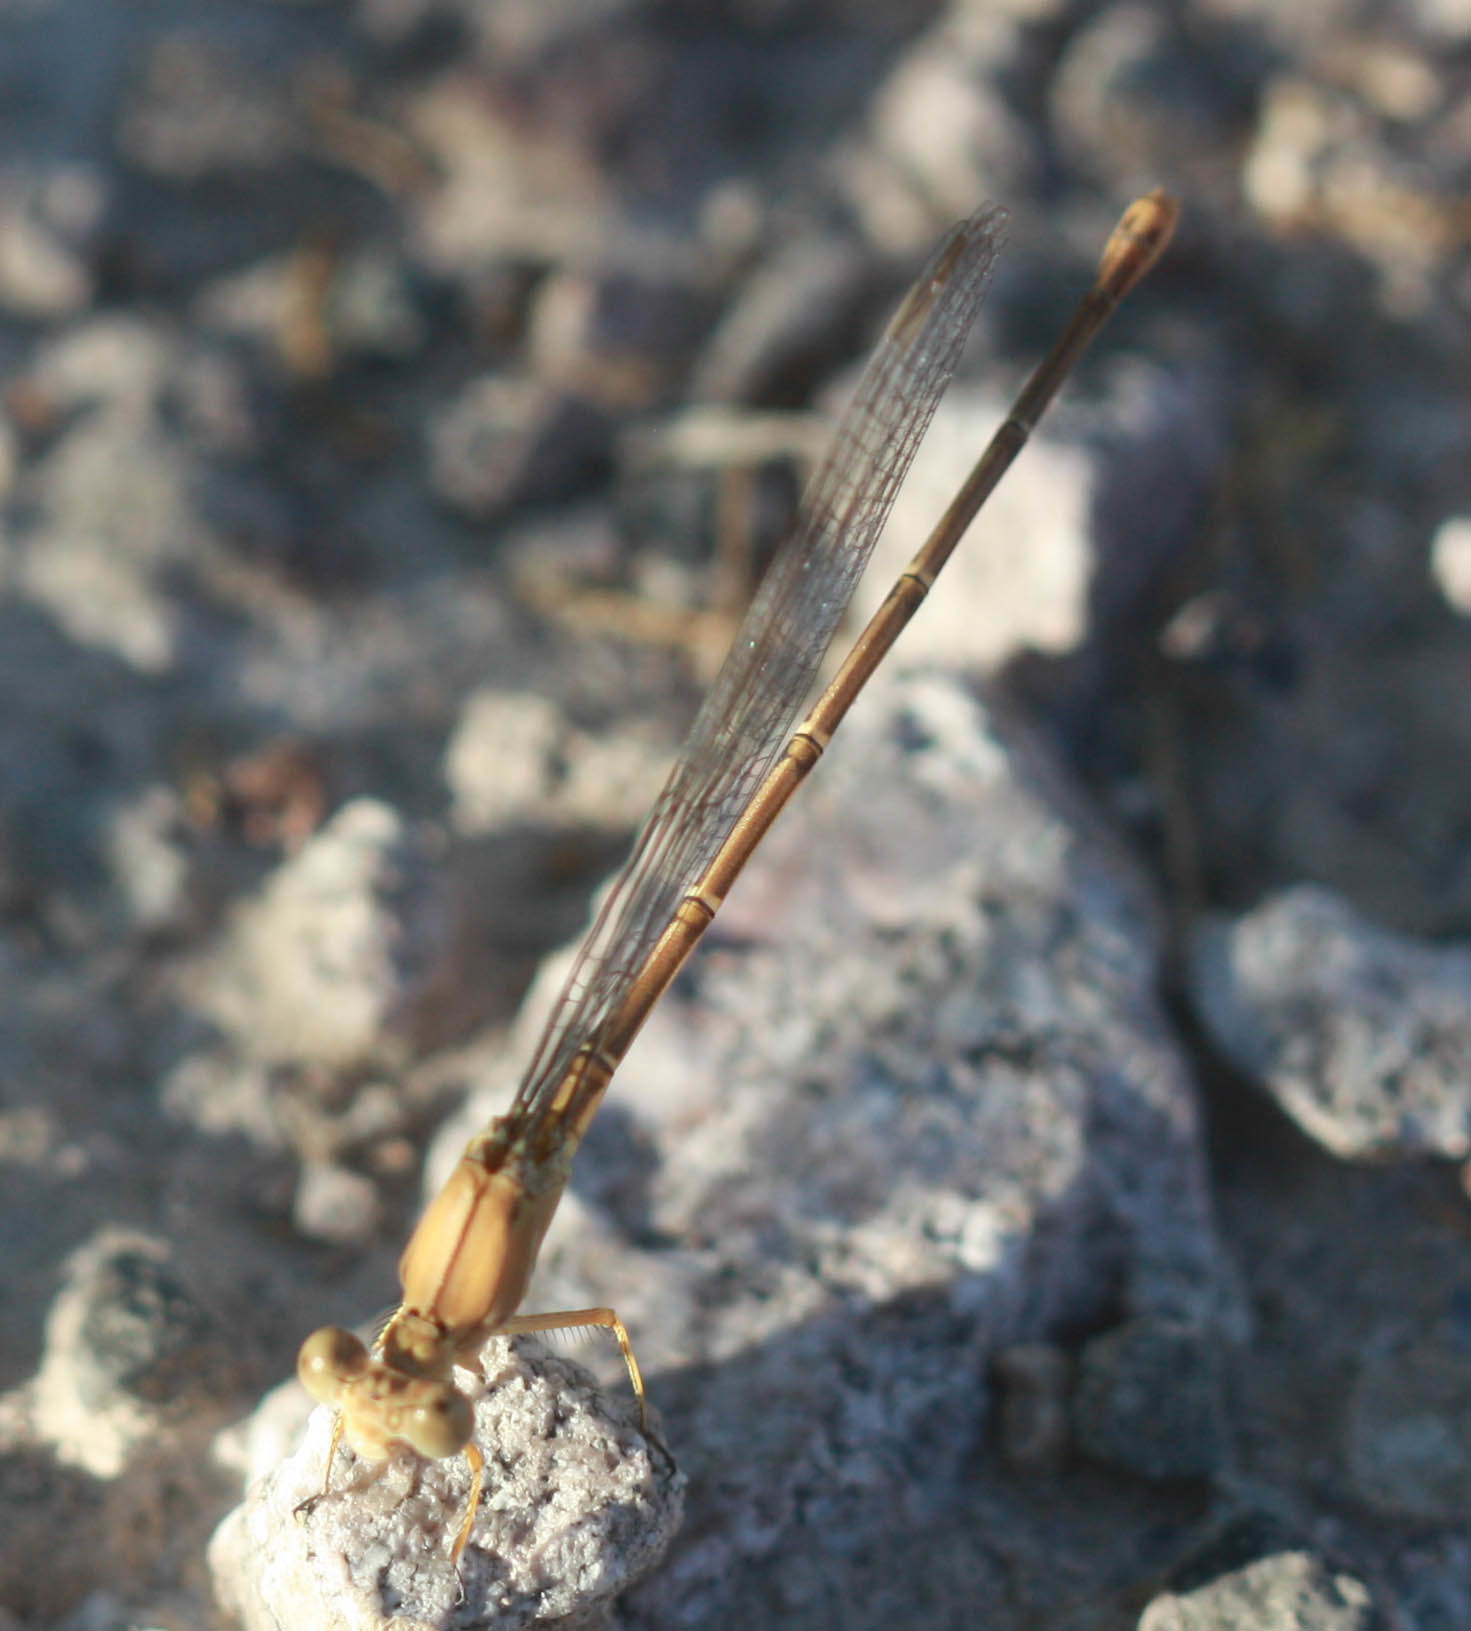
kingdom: Animalia
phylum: Arthropoda
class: Insecta
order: Odonata
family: Coenagrionidae
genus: Argia
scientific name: Argia moesta
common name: Powdered dancer
